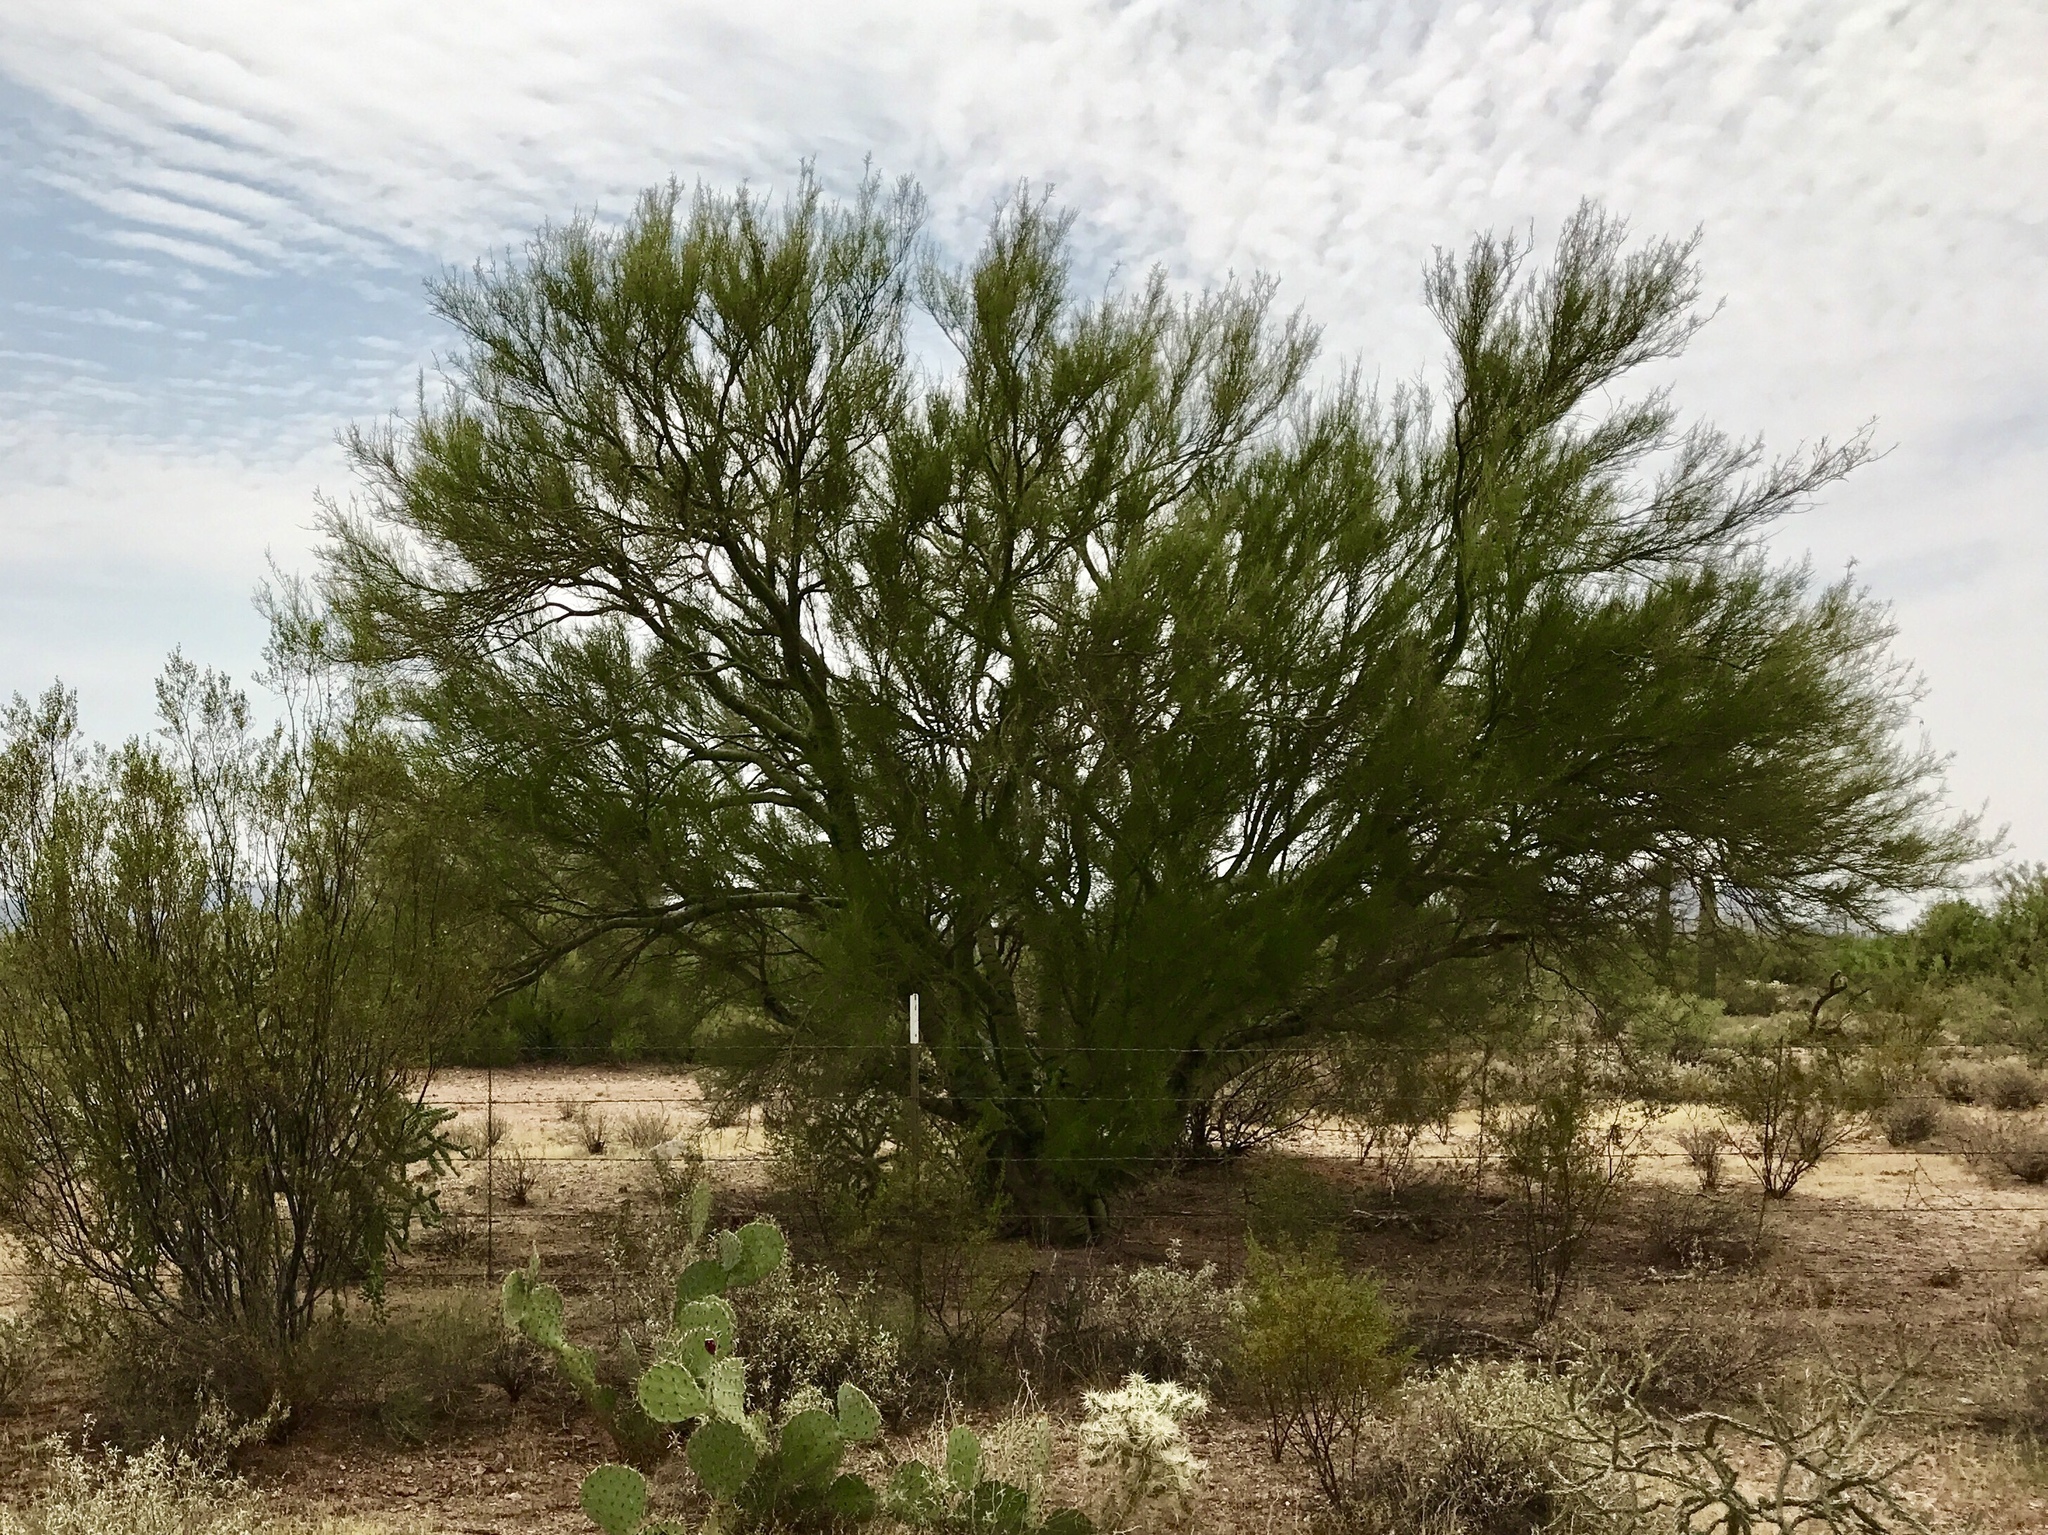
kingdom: Plantae
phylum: Tracheophyta
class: Magnoliopsida
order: Fabales
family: Fabaceae
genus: Parkinsonia
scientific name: Parkinsonia microphylla
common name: Yellow paloverde
